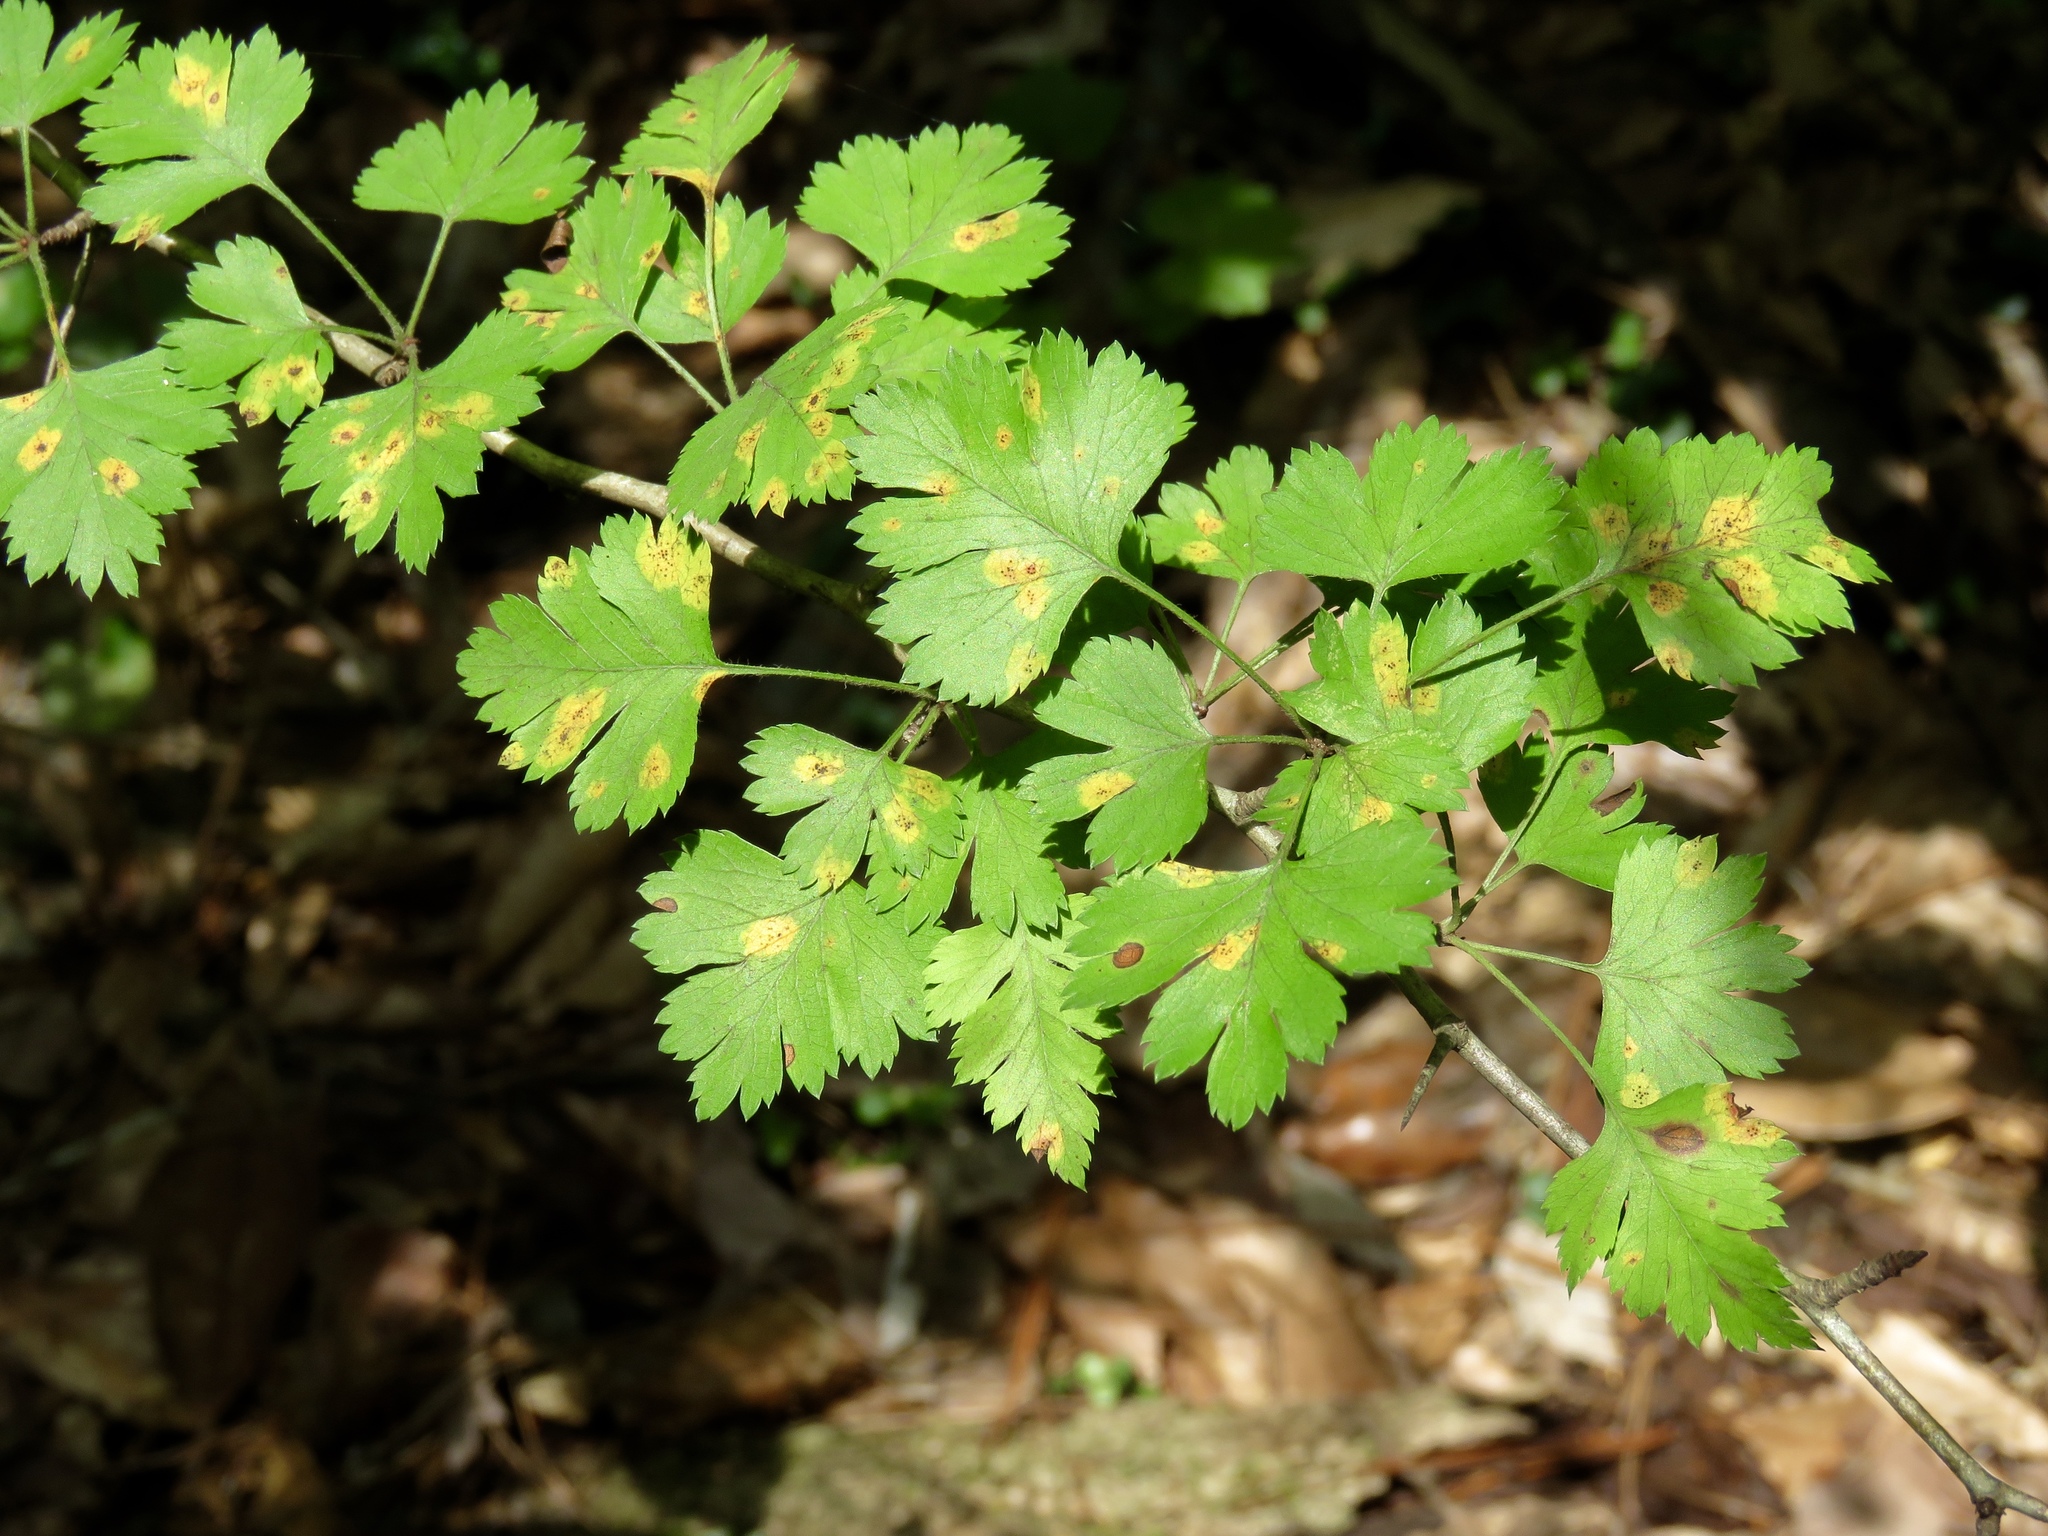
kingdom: Plantae
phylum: Tracheophyta
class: Magnoliopsida
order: Rosales
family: Rosaceae
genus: Crataegus
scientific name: Crataegus marshallii
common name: Parsley-hawthorn
